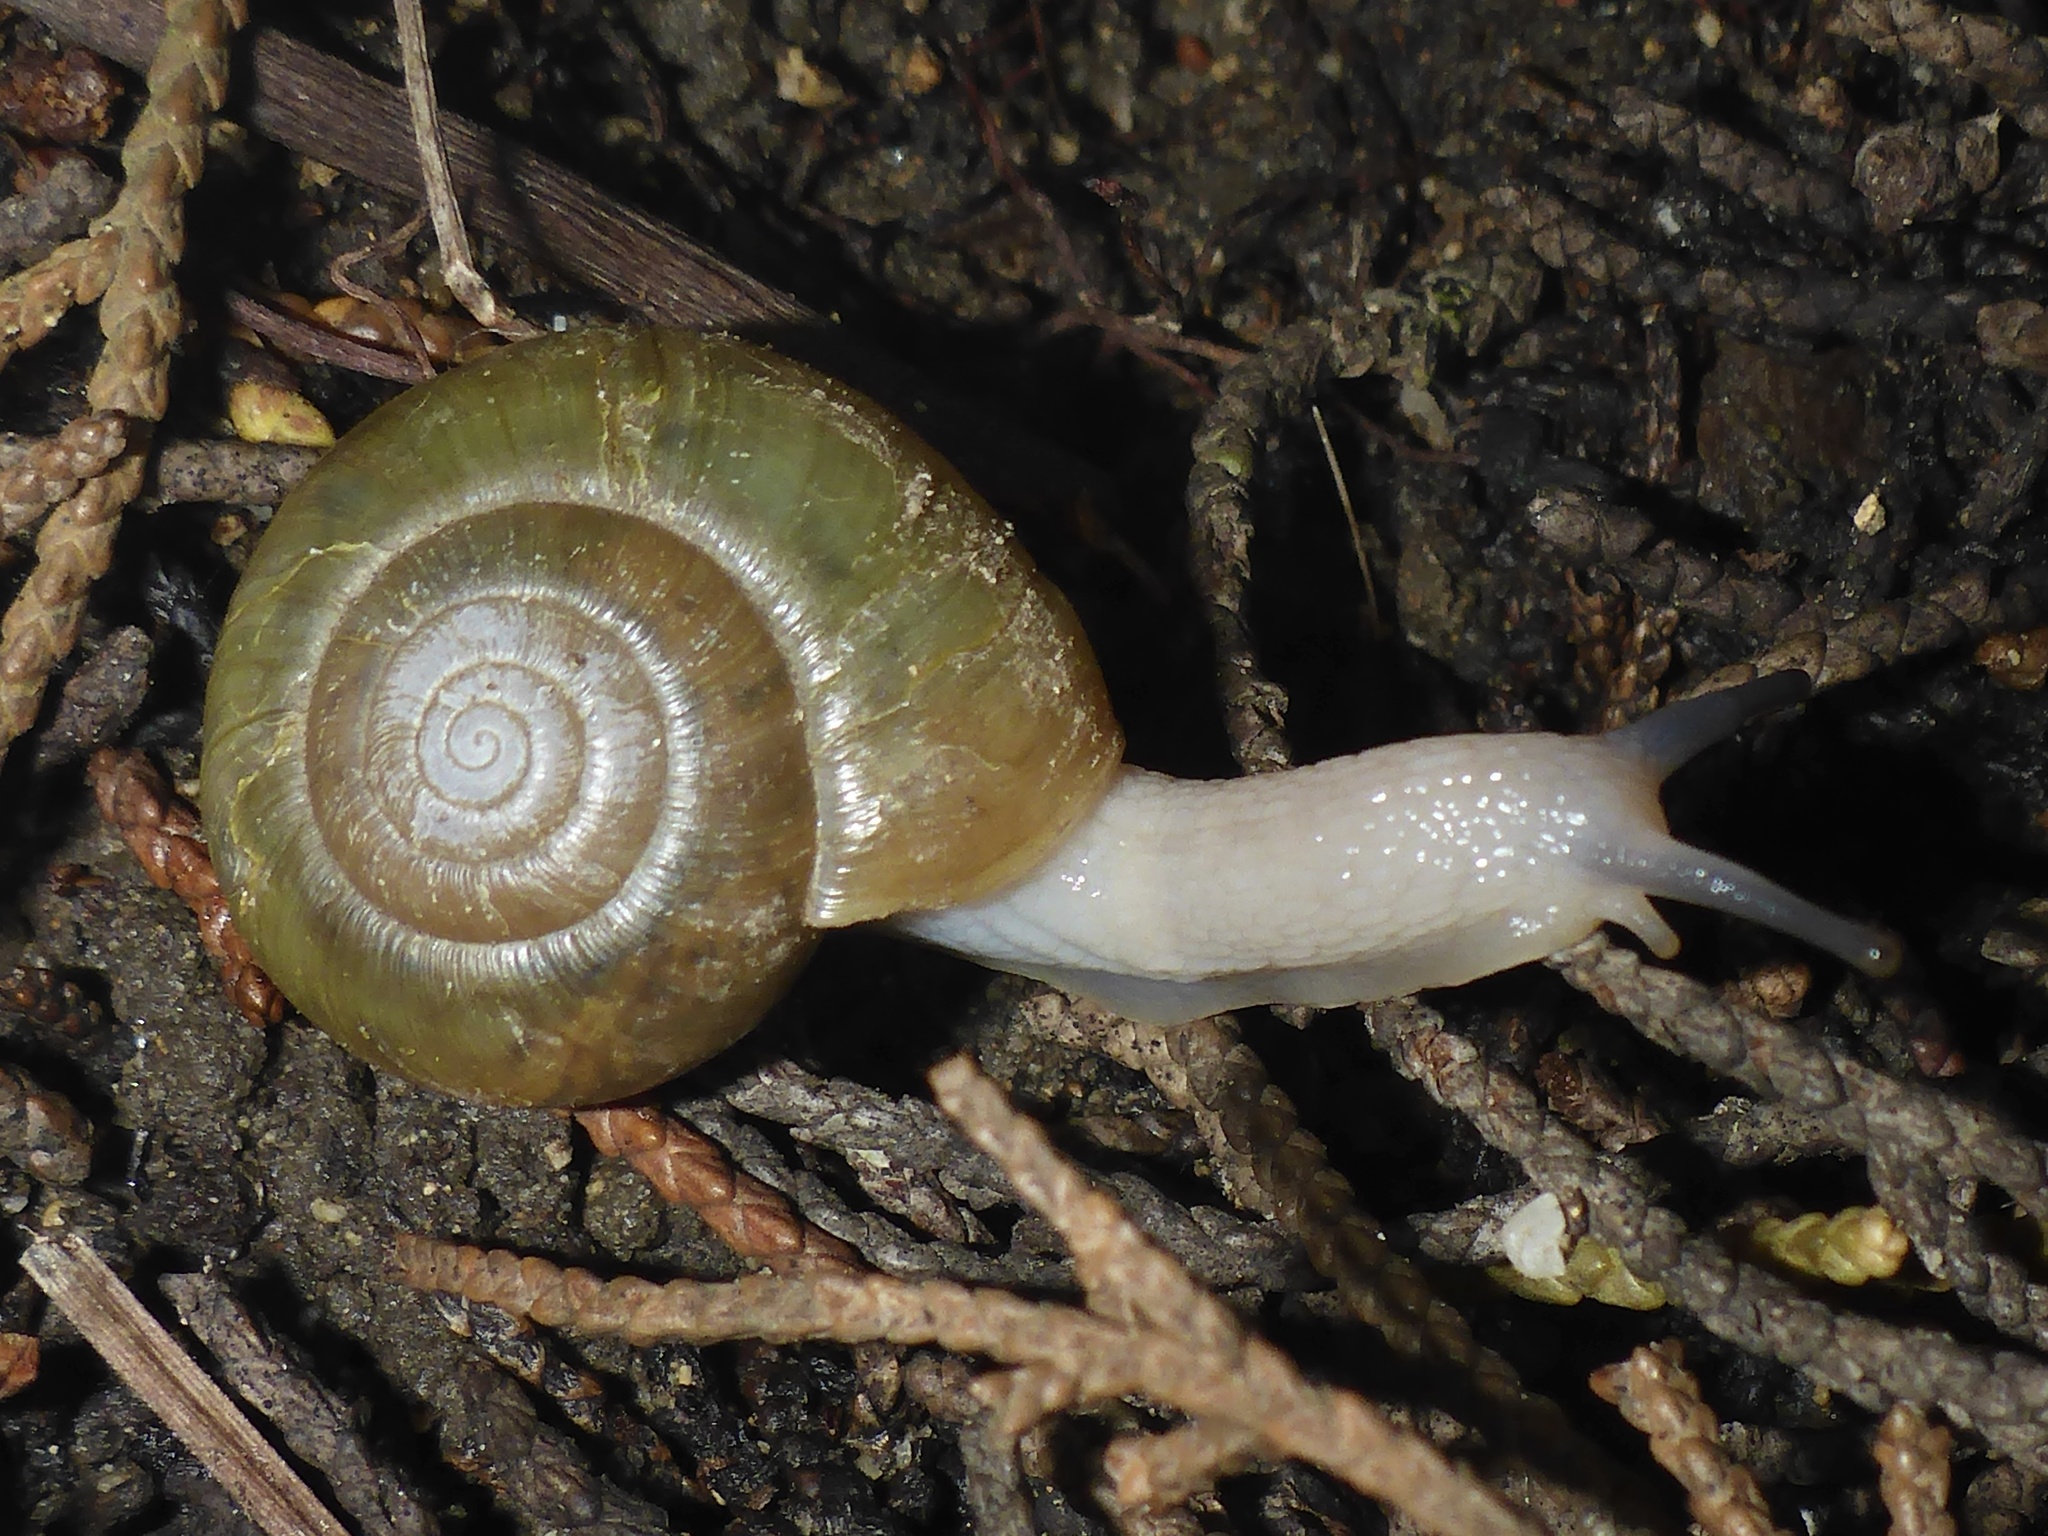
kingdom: Animalia
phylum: Mollusca
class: Gastropoda
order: Stylommatophora
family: Haplotrematidae
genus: Haplotrema
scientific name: Haplotrema minimum
